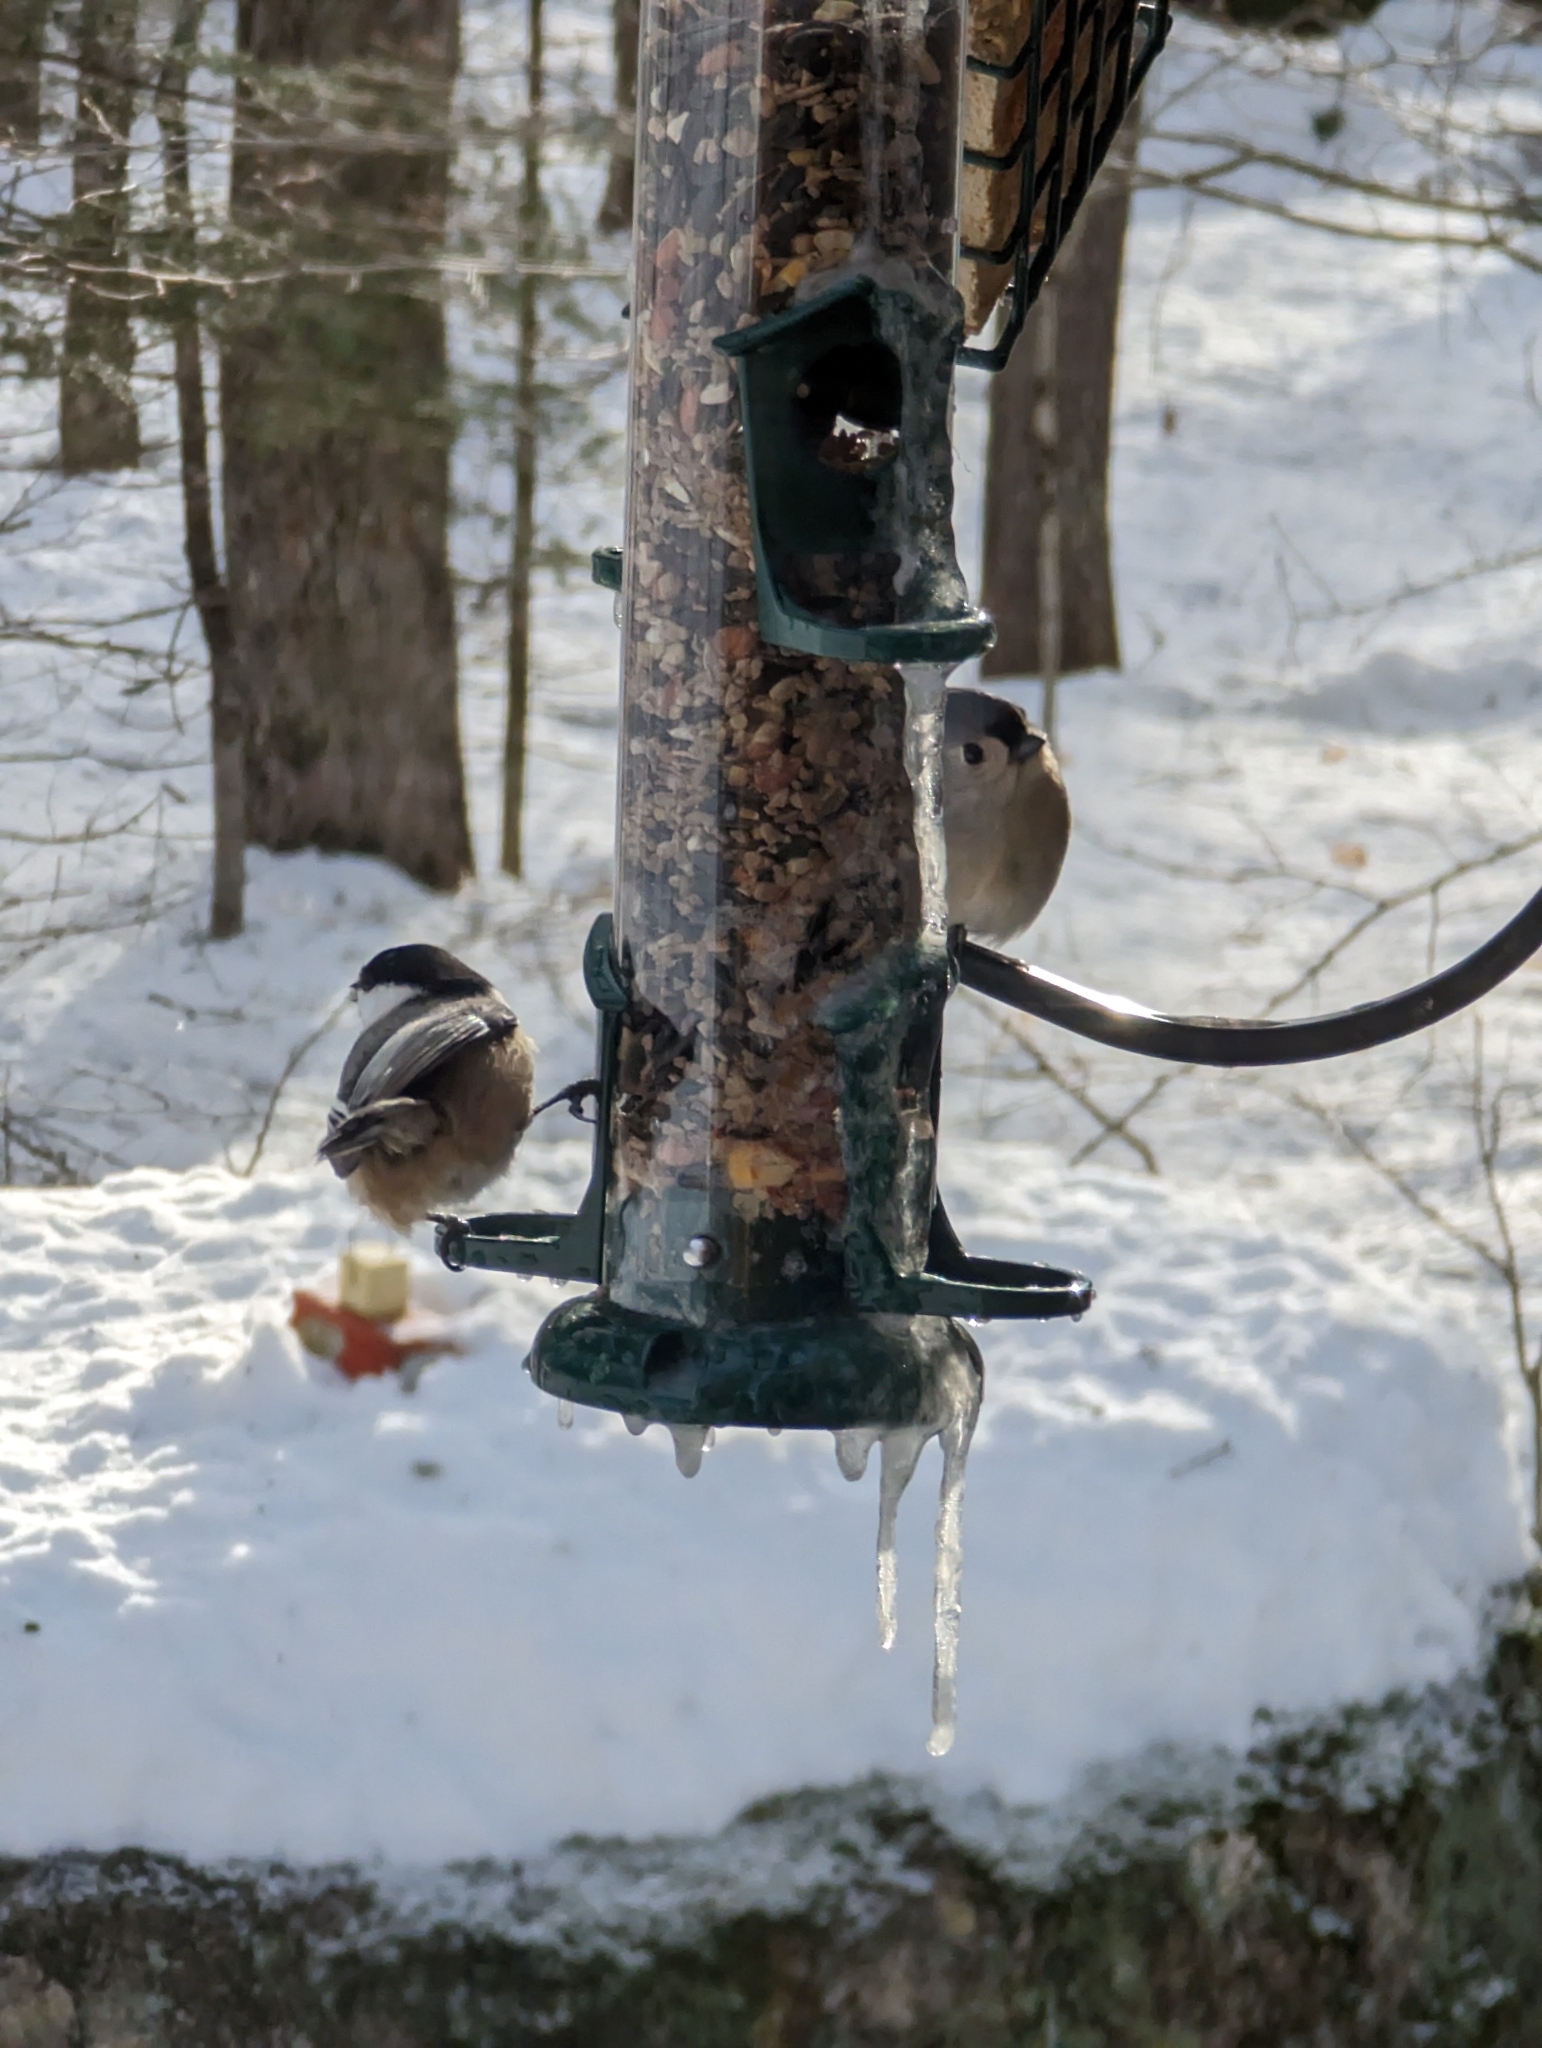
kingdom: Animalia
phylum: Chordata
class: Aves
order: Passeriformes
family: Paridae
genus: Poecile
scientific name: Poecile atricapillus
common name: Black-capped chickadee
